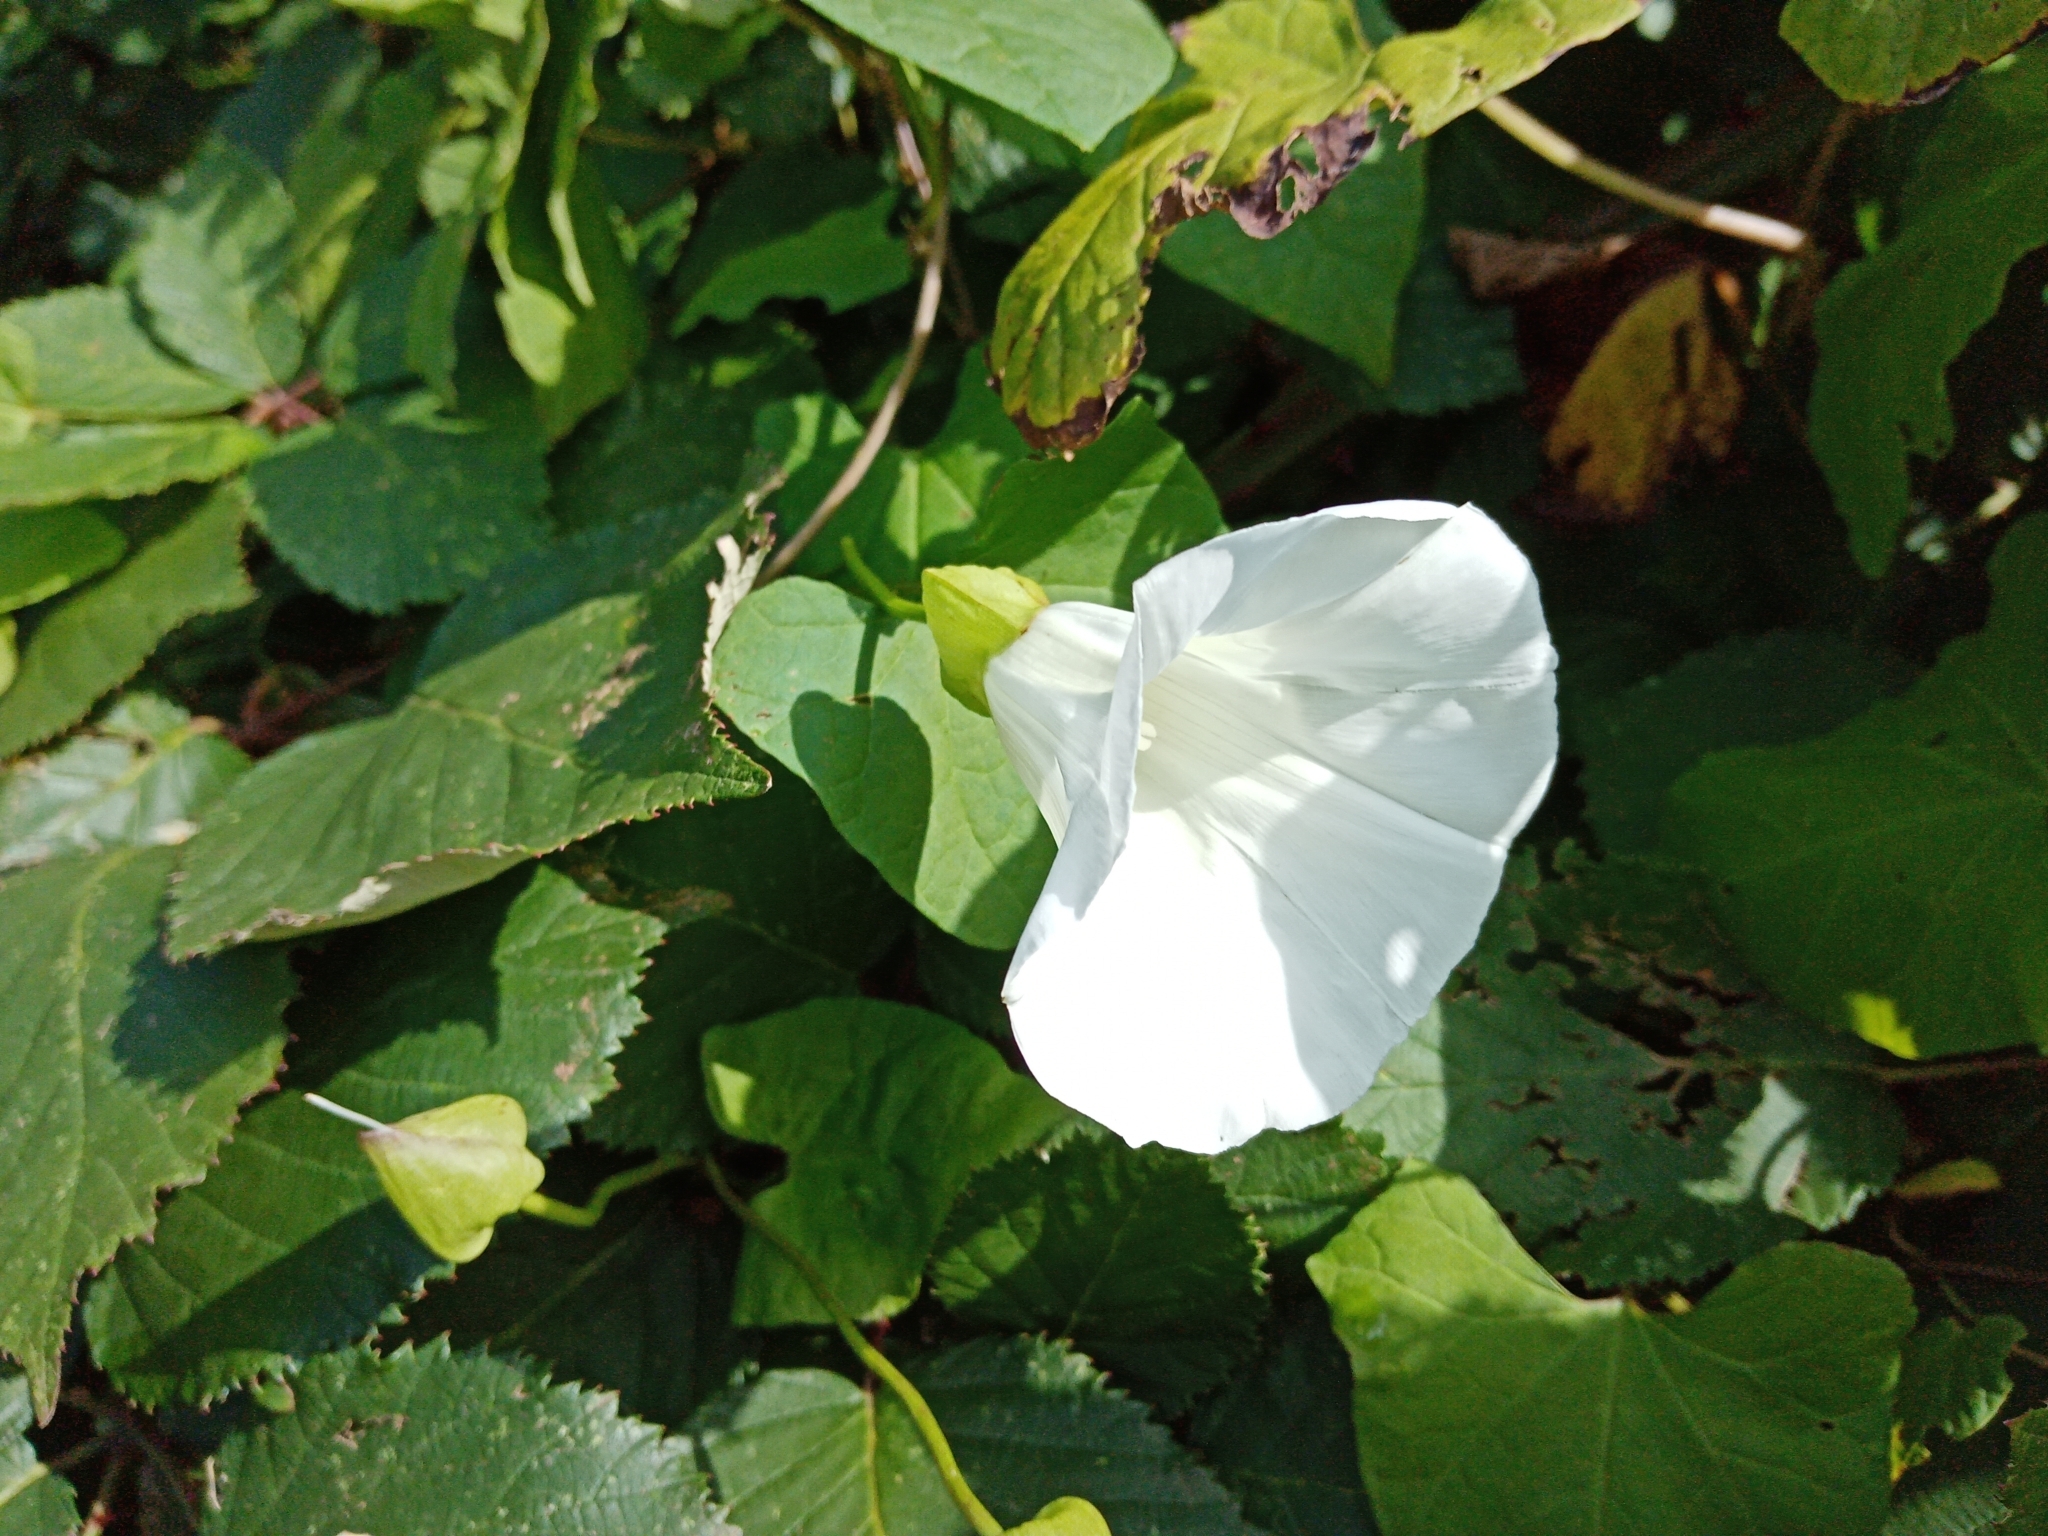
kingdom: Plantae
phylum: Tracheophyta
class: Magnoliopsida
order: Solanales
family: Convolvulaceae
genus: Calystegia
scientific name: Calystegia silvatica
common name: Large bindweed
